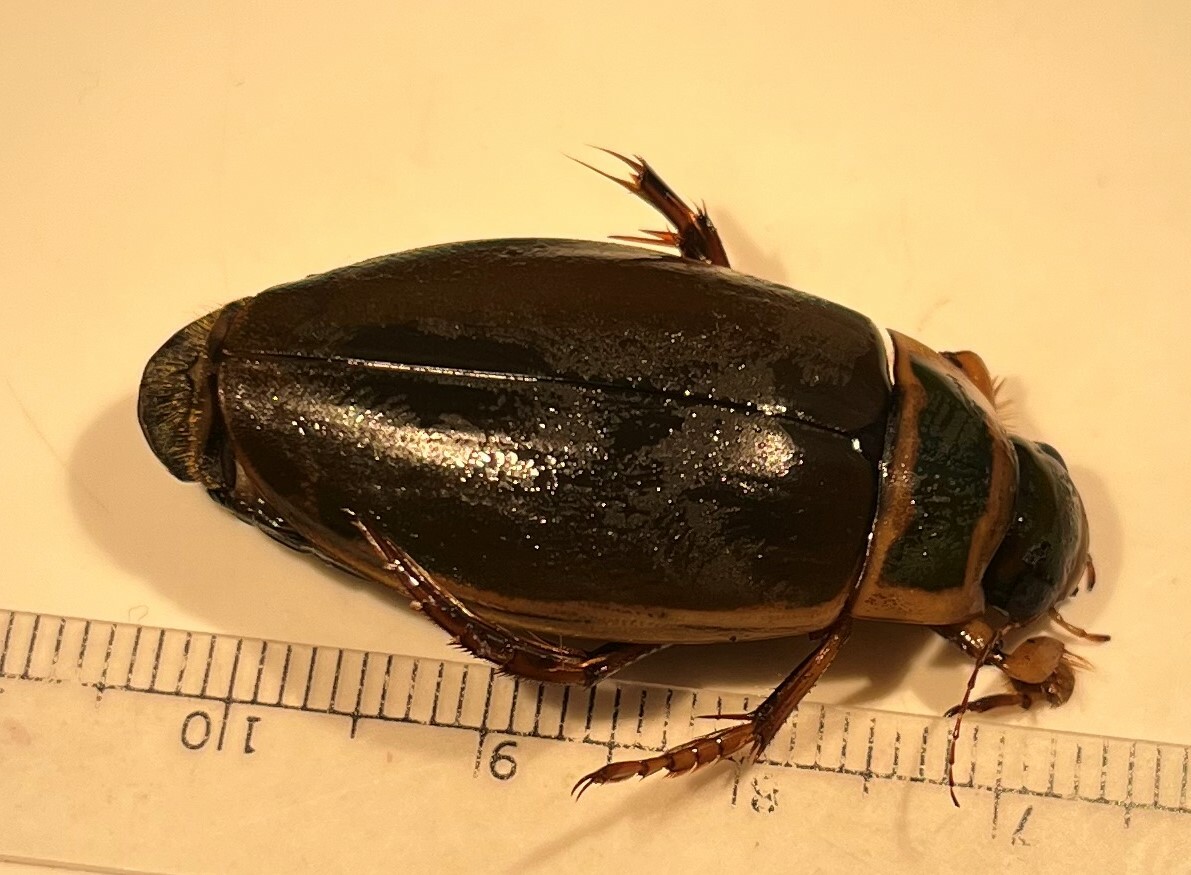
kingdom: Animalia
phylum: Arthropoda
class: Insecta
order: Coleoptera
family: Dytiscidae
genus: Dytiscus
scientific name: Dytiscus dauricus
